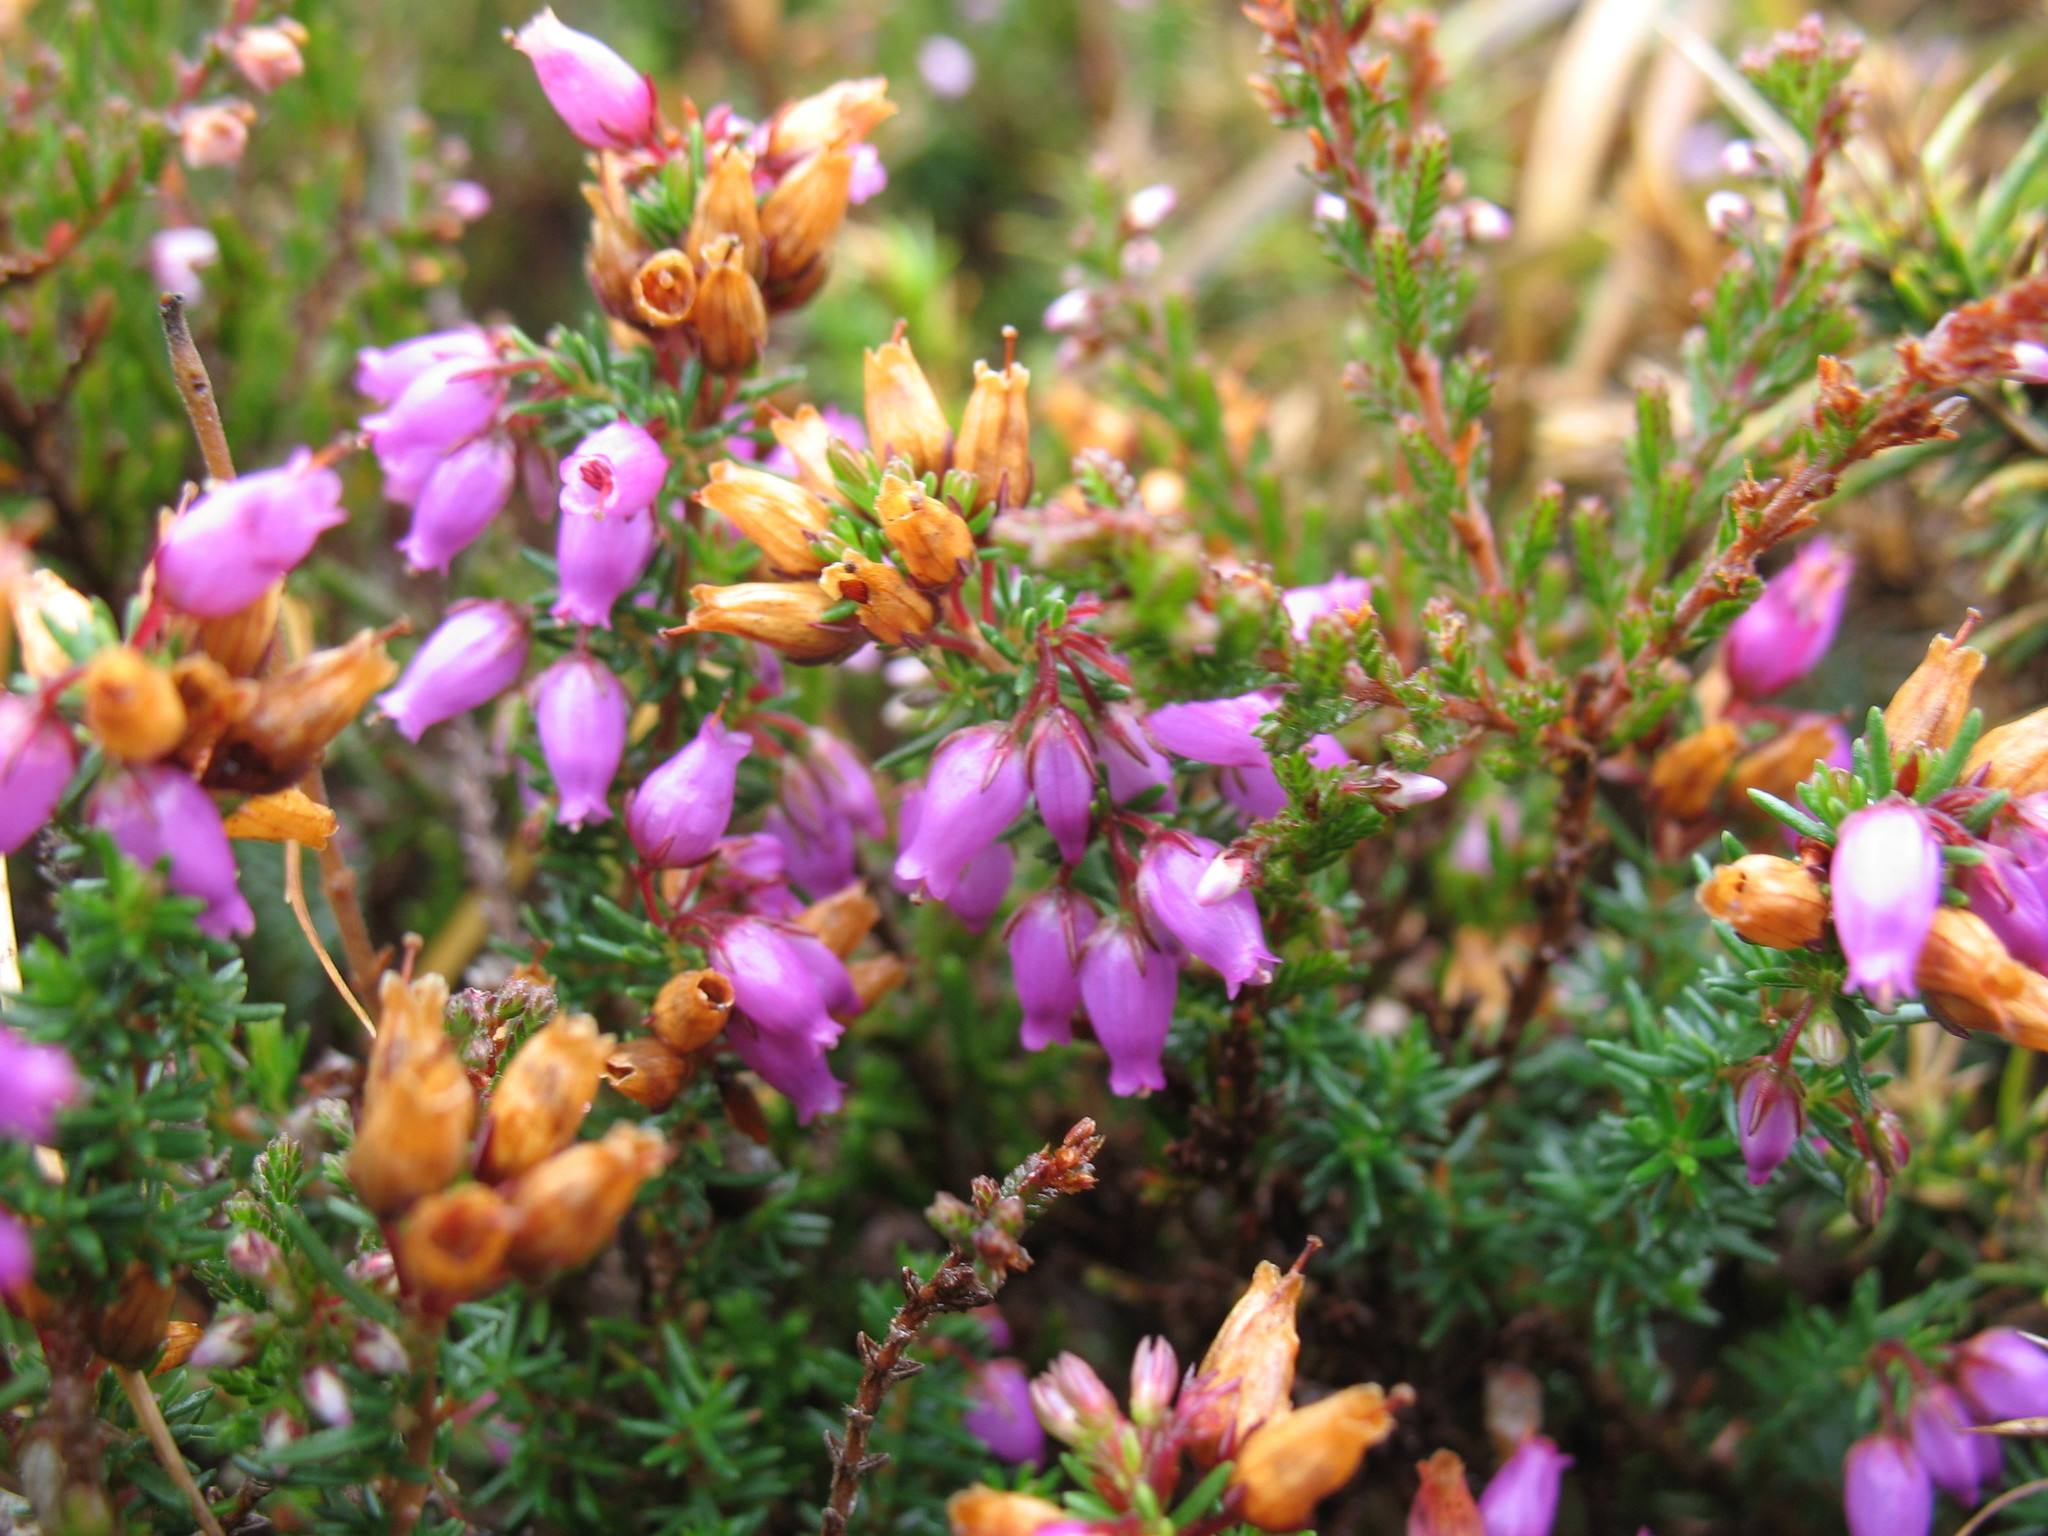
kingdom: Plantae
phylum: Tracheophyta
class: Magnoliopsida
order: Ericales
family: Ericaceae
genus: Erica
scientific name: Erica cinerea
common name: Bell heather
